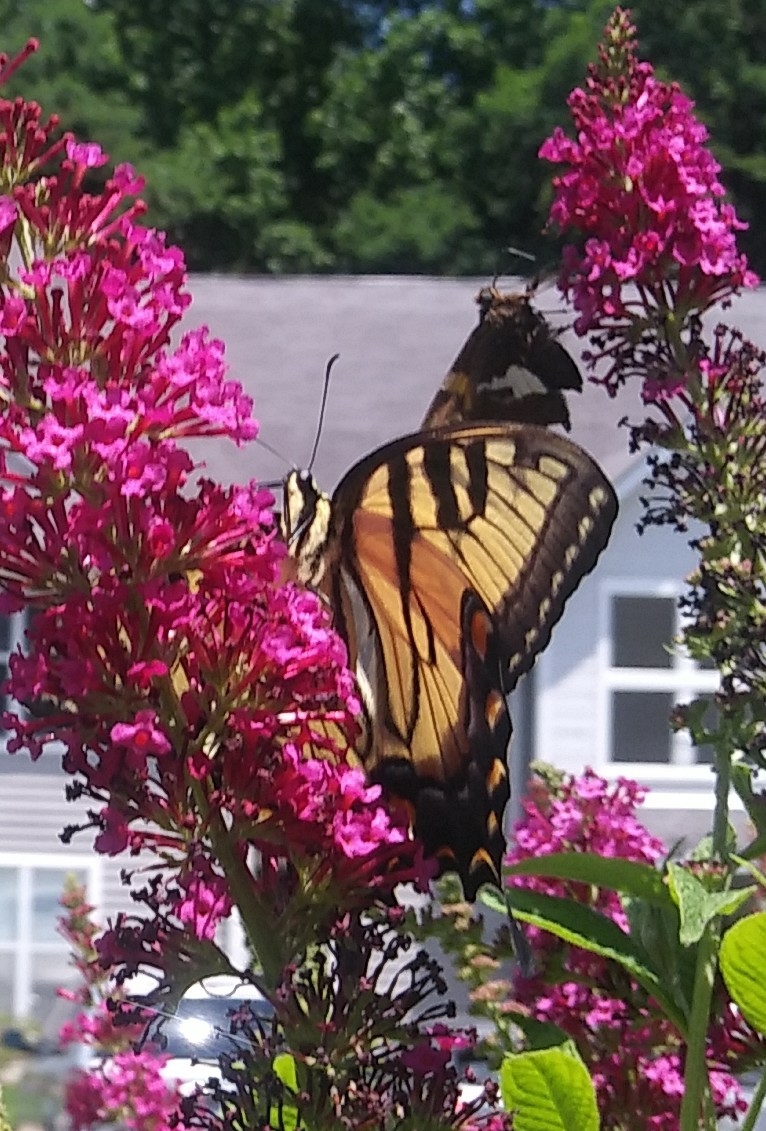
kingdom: Animalia
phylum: Arthropoda
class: Insecta
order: Lepidoptera
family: Papilionidae
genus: Papilio
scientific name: Papilio glaucus
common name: Tiger swallowtail
